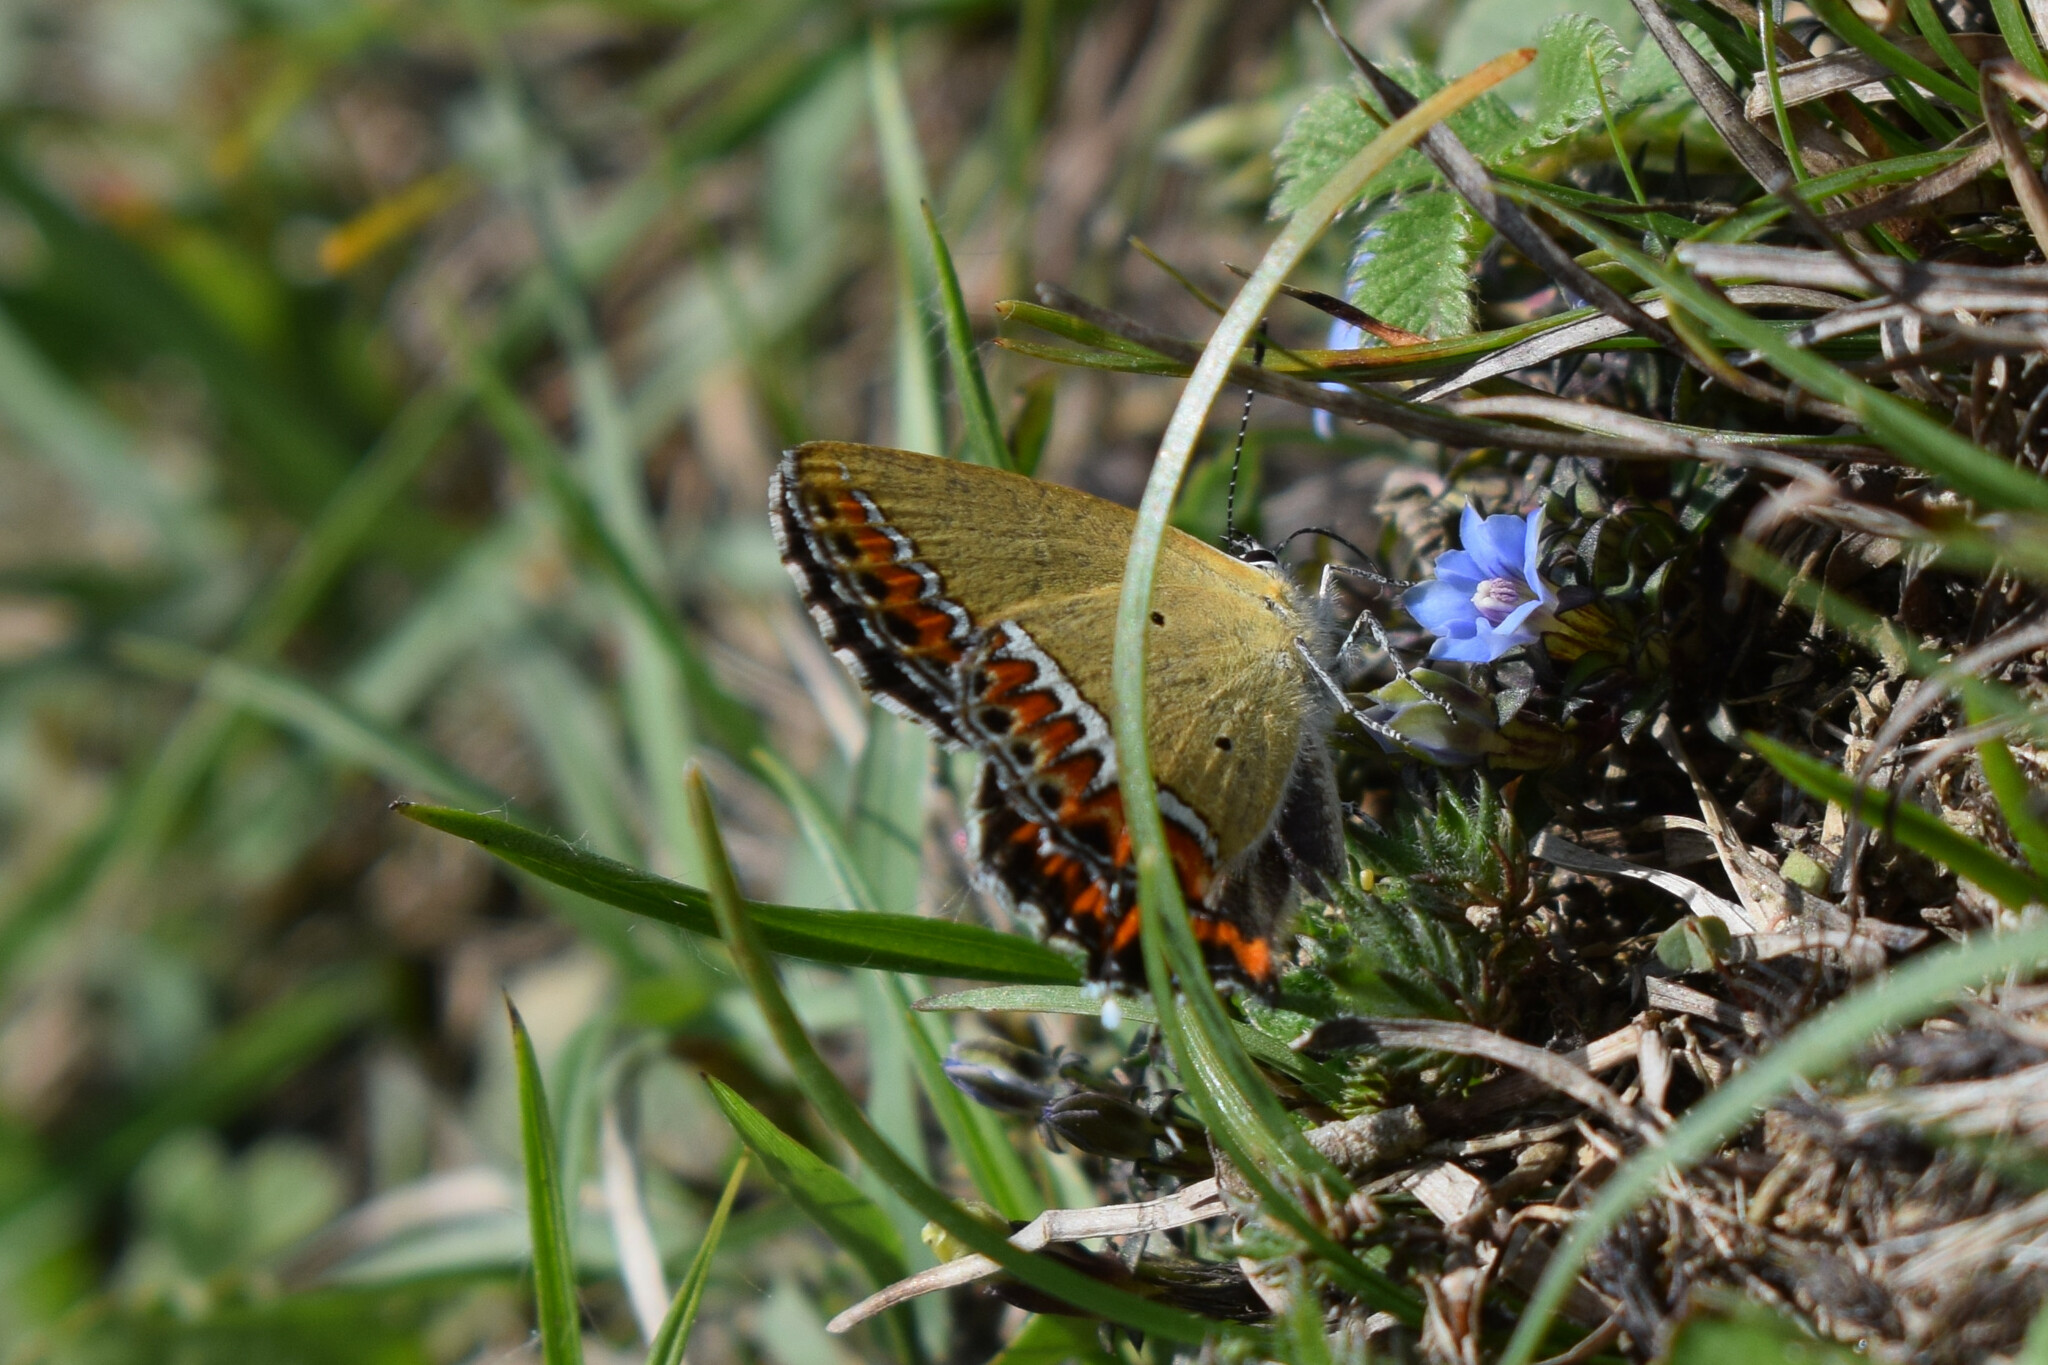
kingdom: Animalia
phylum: Arthropoda
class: Insecta
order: Lepidoptera
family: Lycaenidae
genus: Heliophorus
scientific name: Heliophorus sena
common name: Sorrel sapphire
